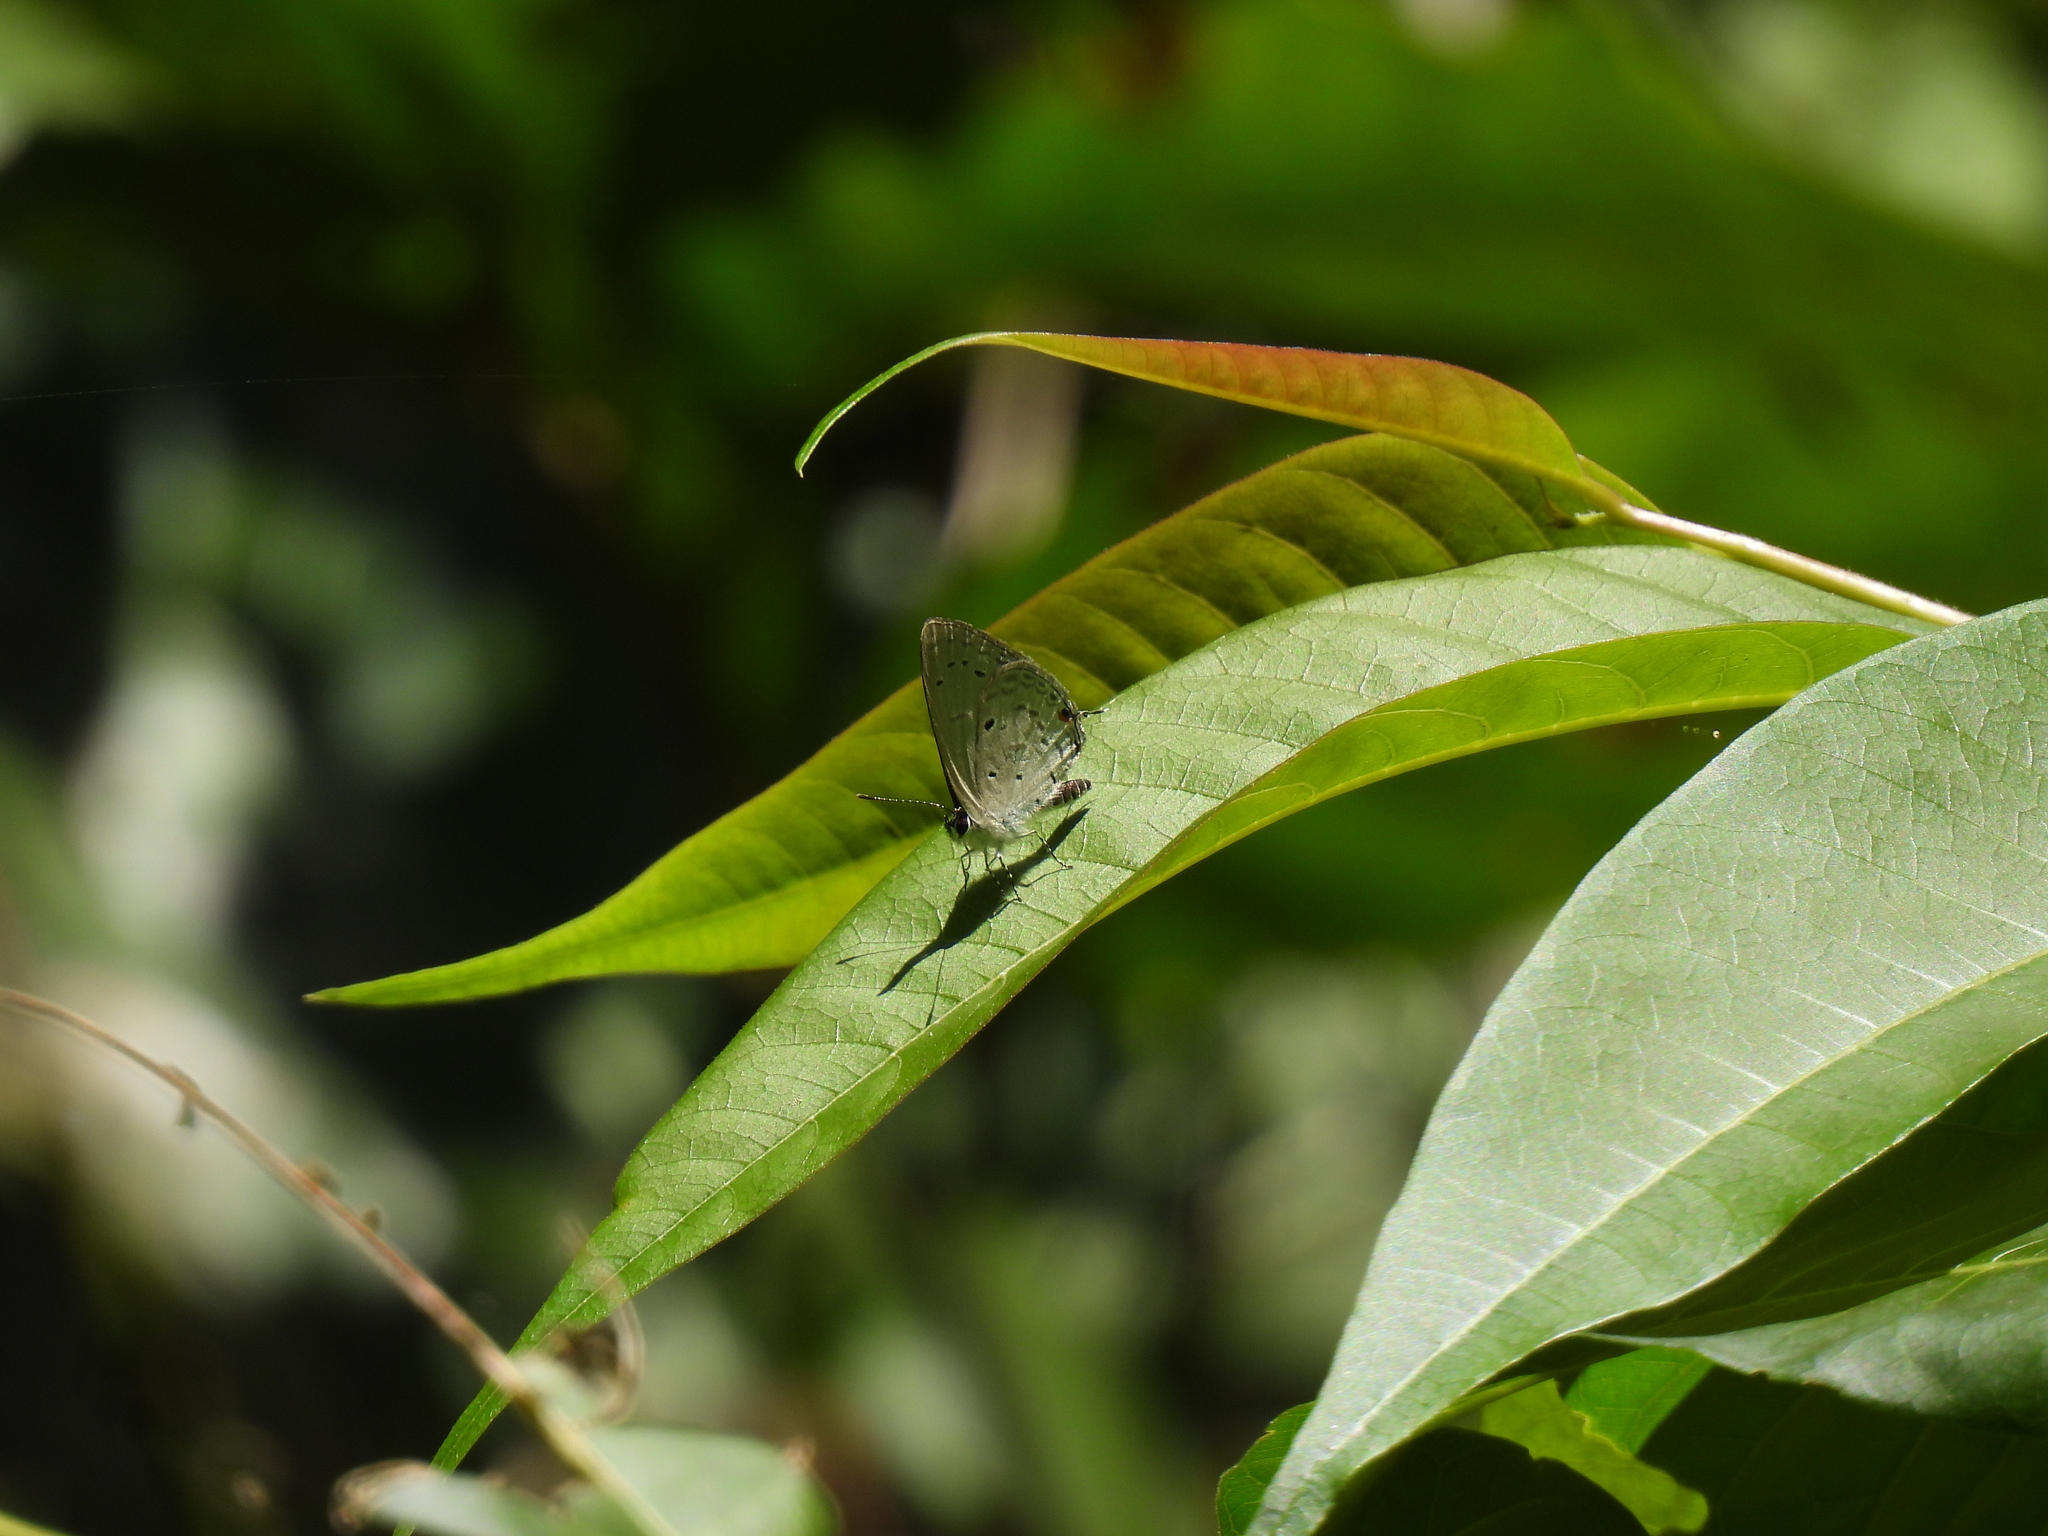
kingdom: Animalia
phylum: Arthropoda
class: Insecta
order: Lepidoptera
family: Lycaenidae
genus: Eicochrysops
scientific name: Eicochrysops hippocrates
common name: White-tipped blue
